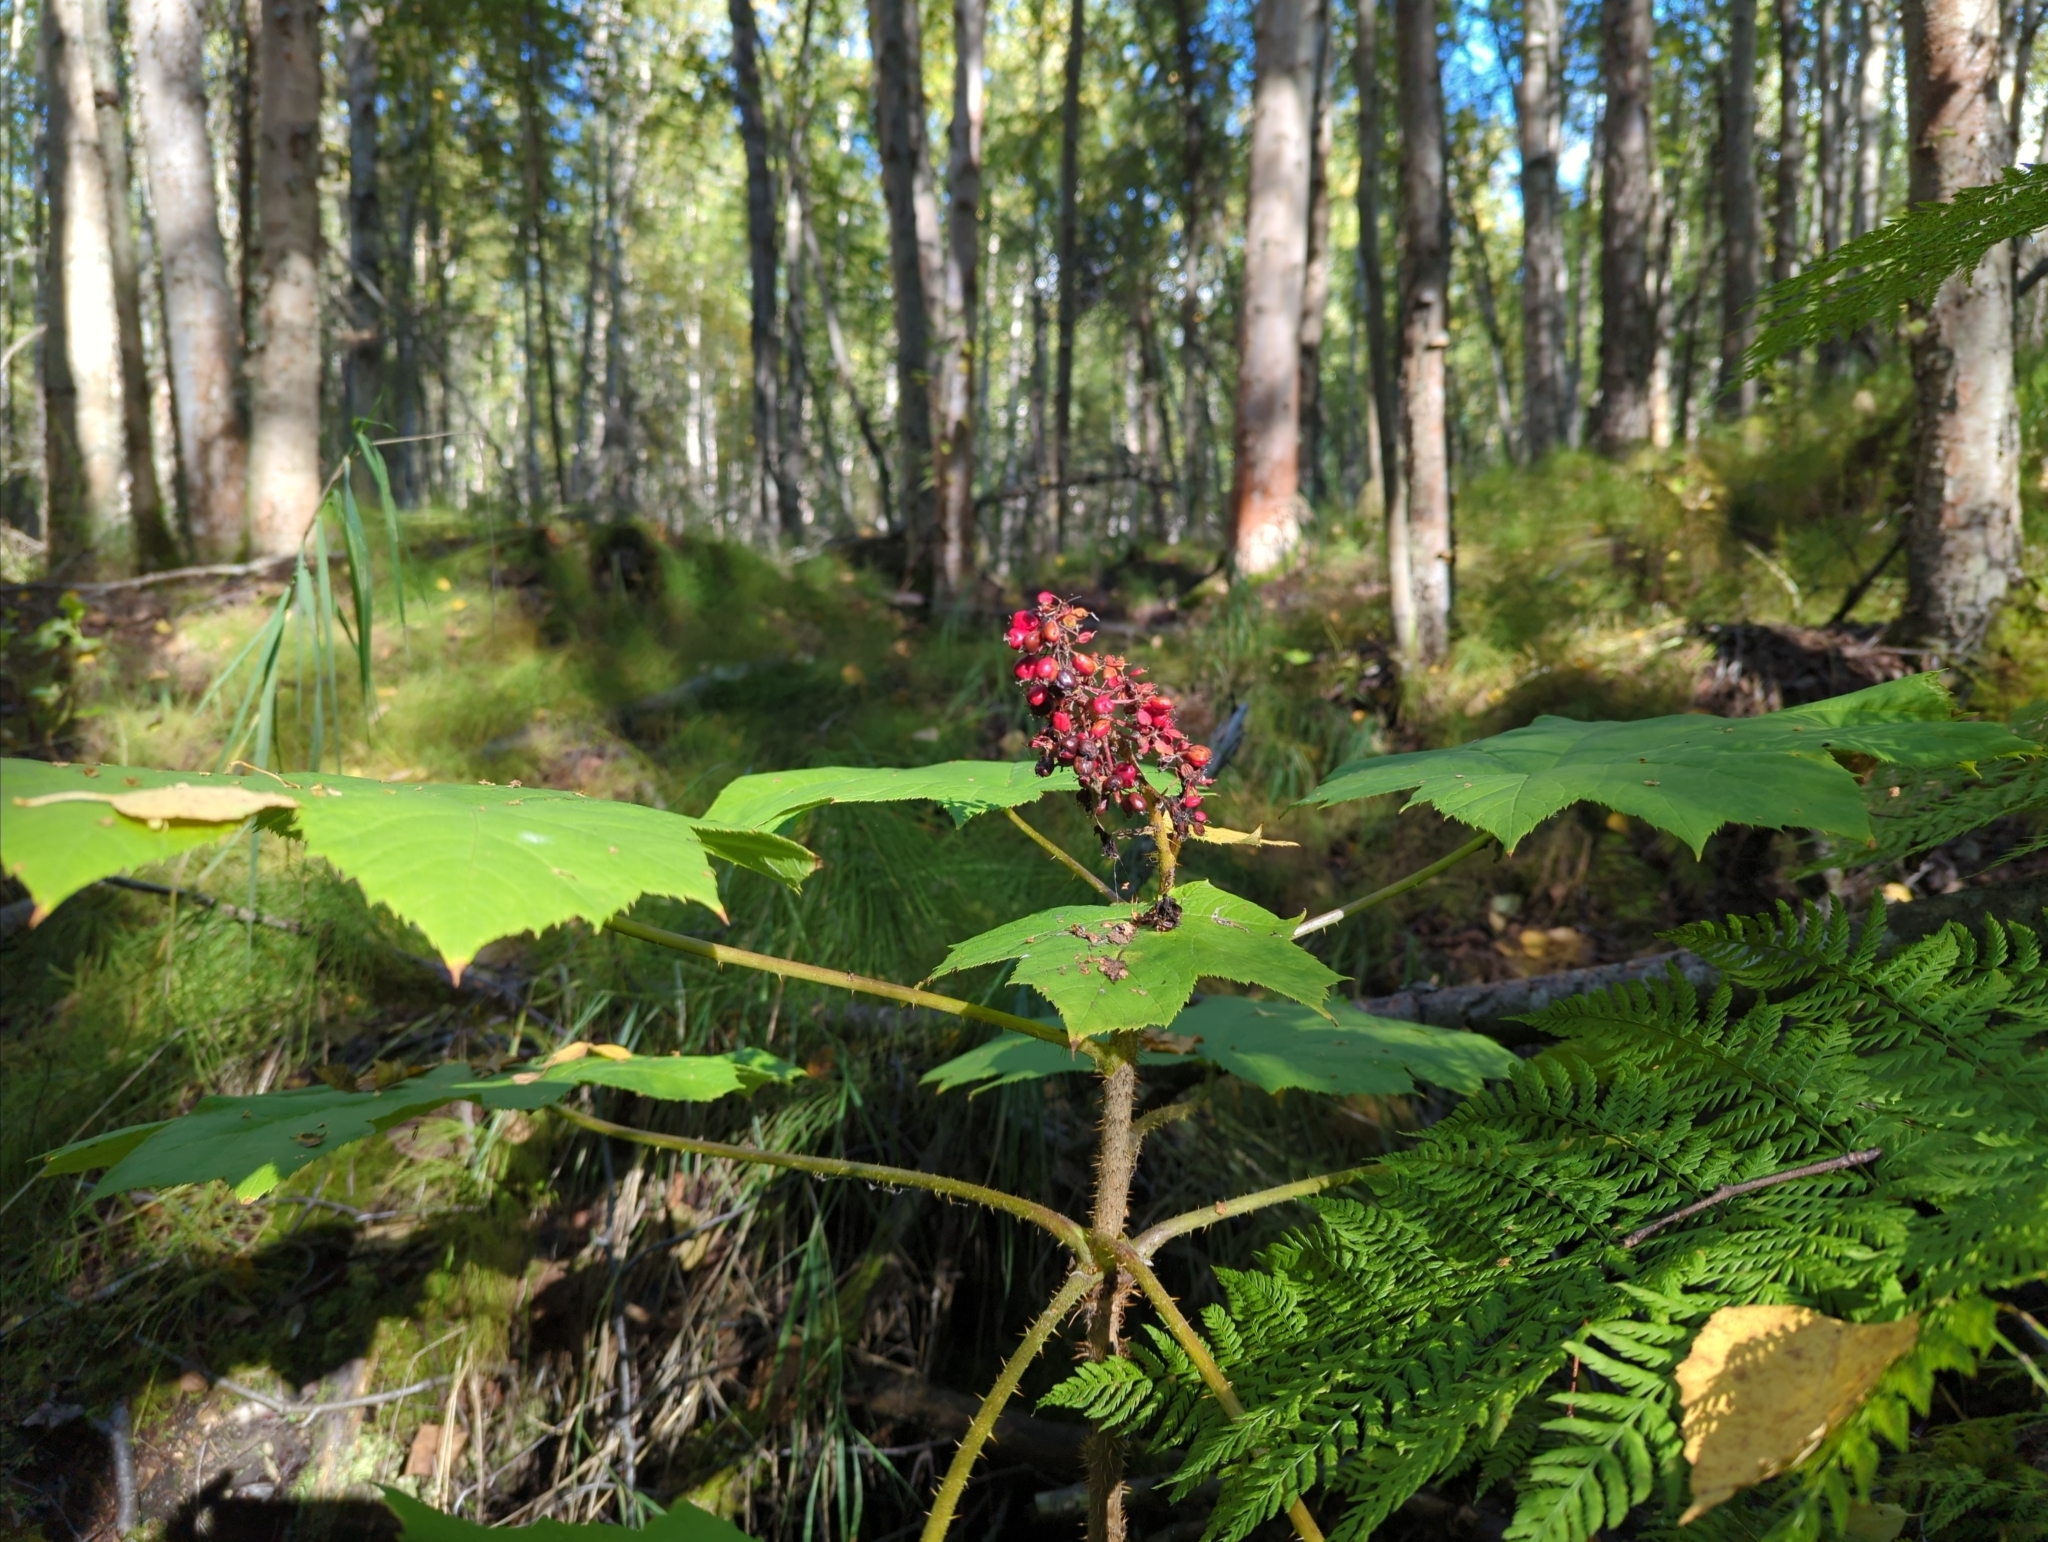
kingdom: Plantae
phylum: Tracheophyta
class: Magnoliopsida
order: Apiales
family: Araliaceae
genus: Oplopanax
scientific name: Oplopanax horridus
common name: Devil's walking-stick
